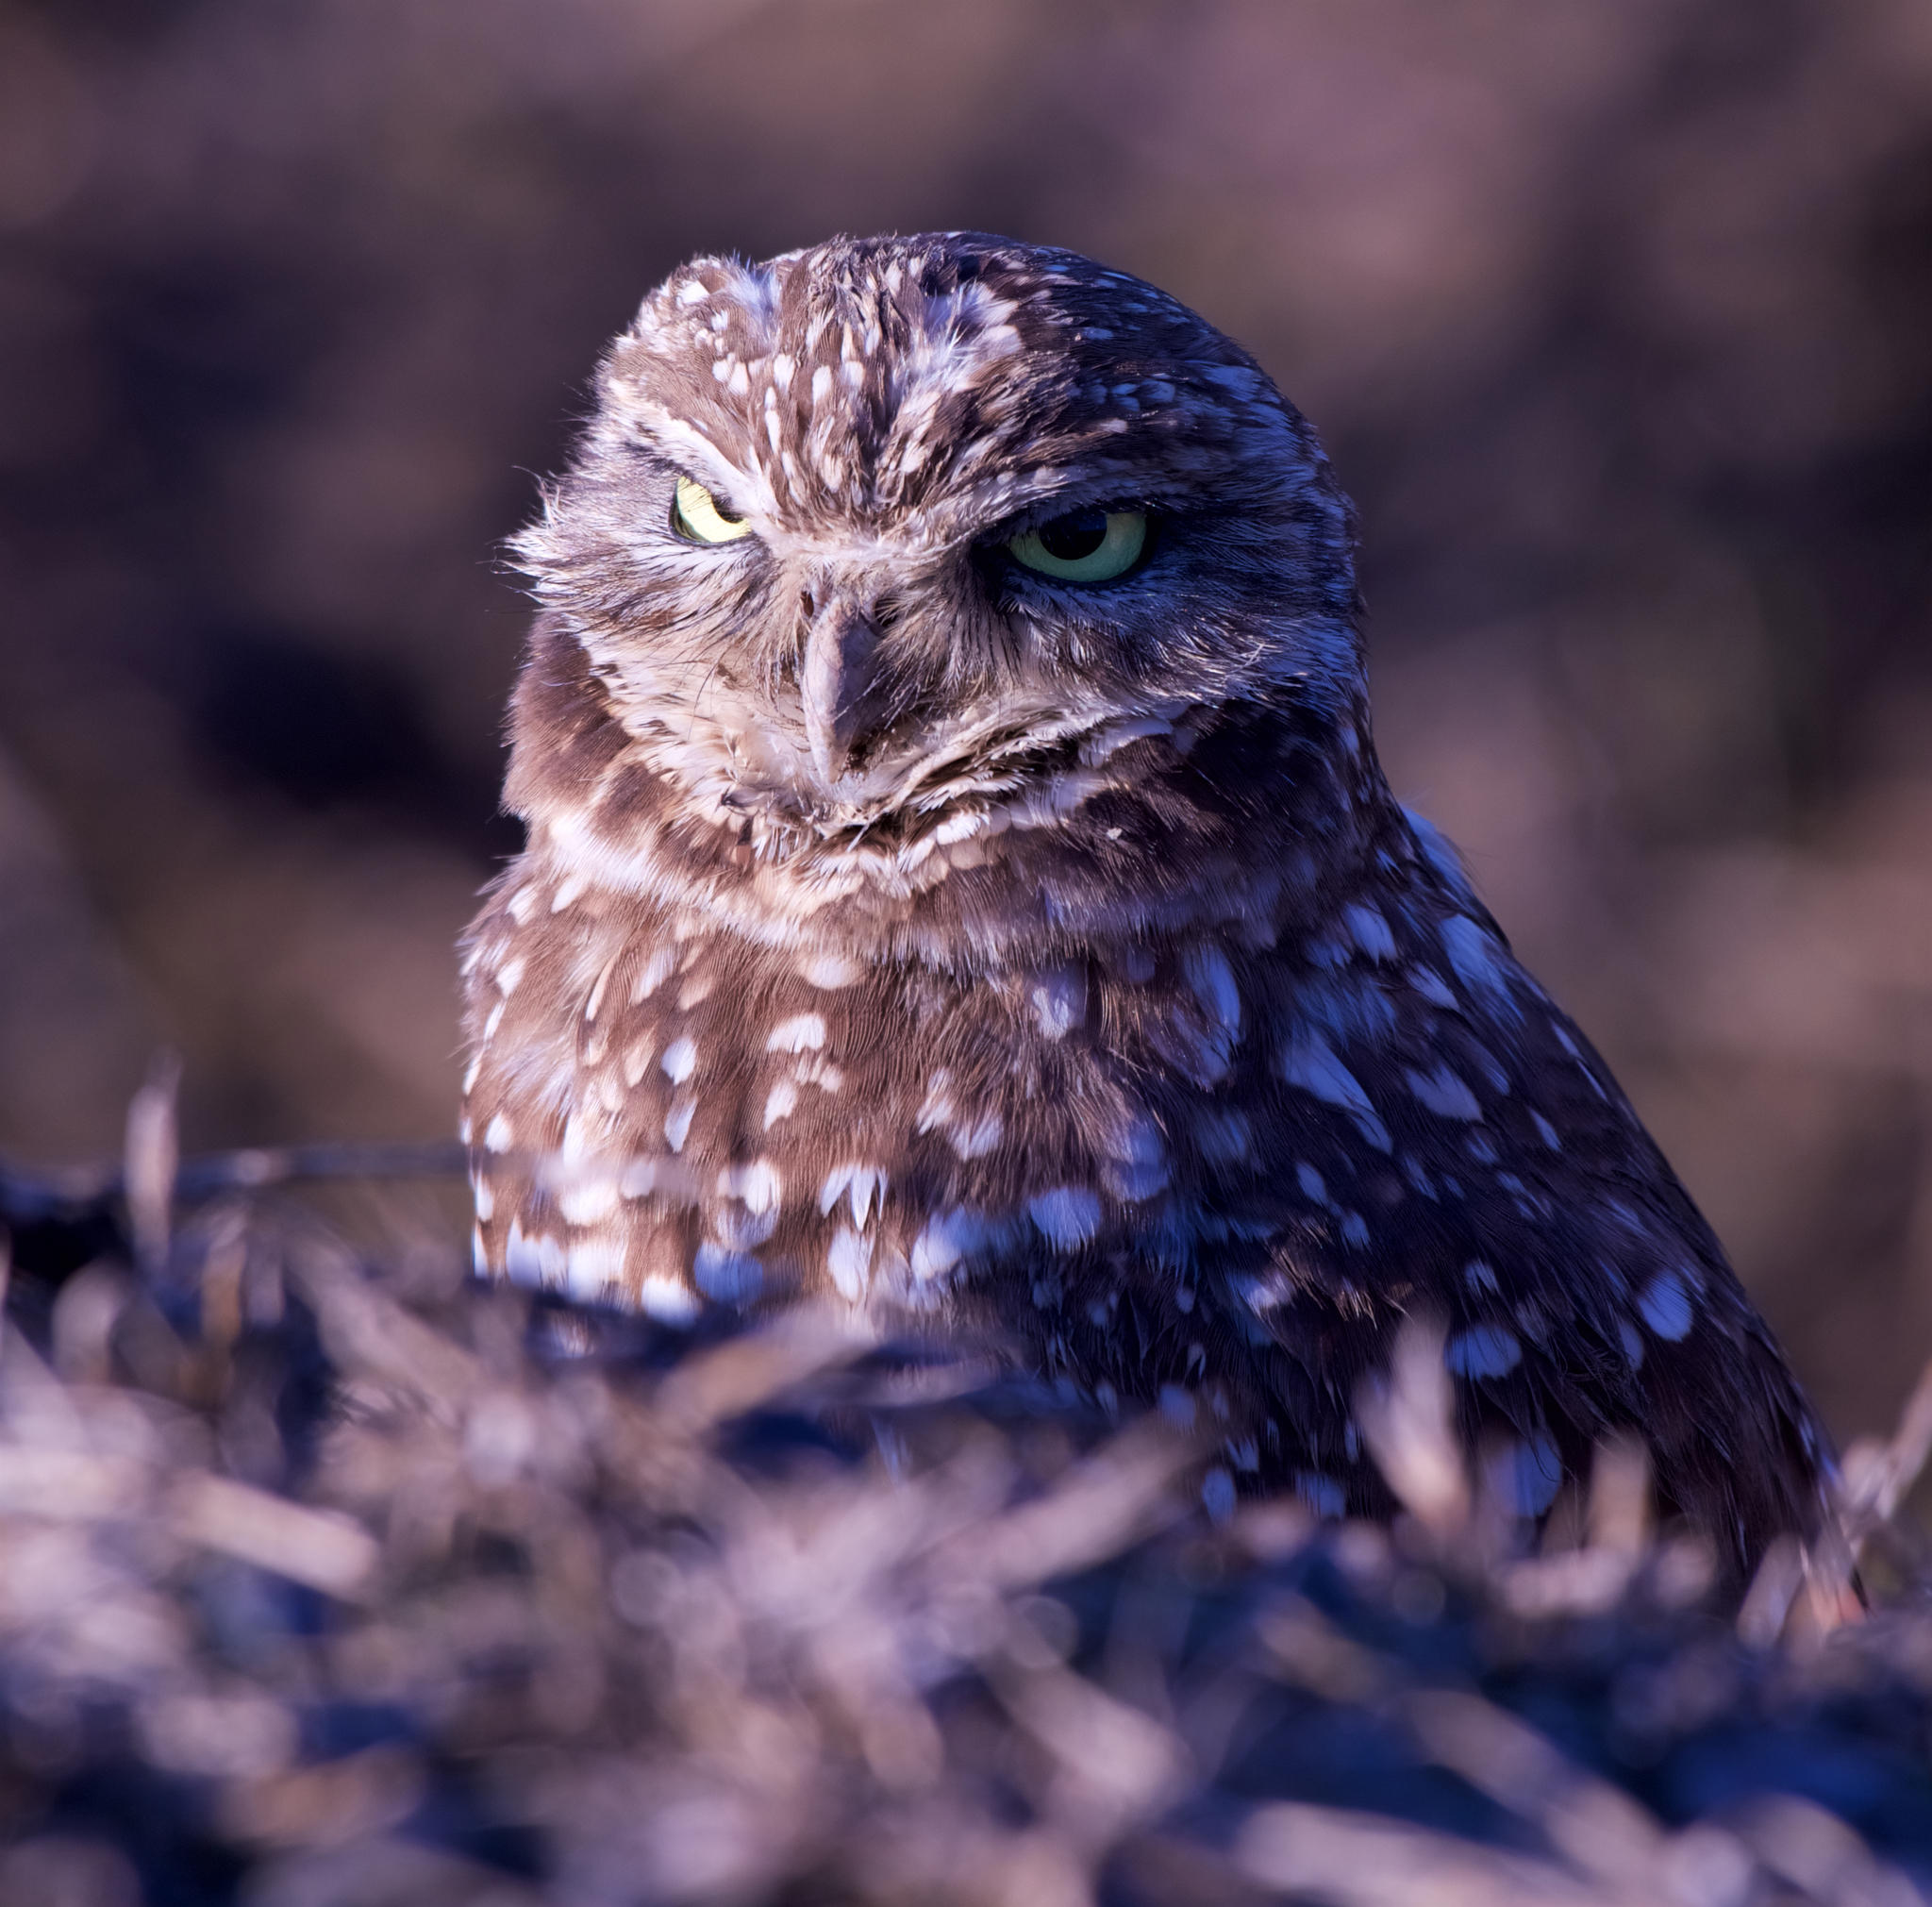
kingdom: Animalia
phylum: Chordata
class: Aves
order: Strigiformes
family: Strigidae
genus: Athene
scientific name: Athene cunicularia
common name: Burrowing owl
